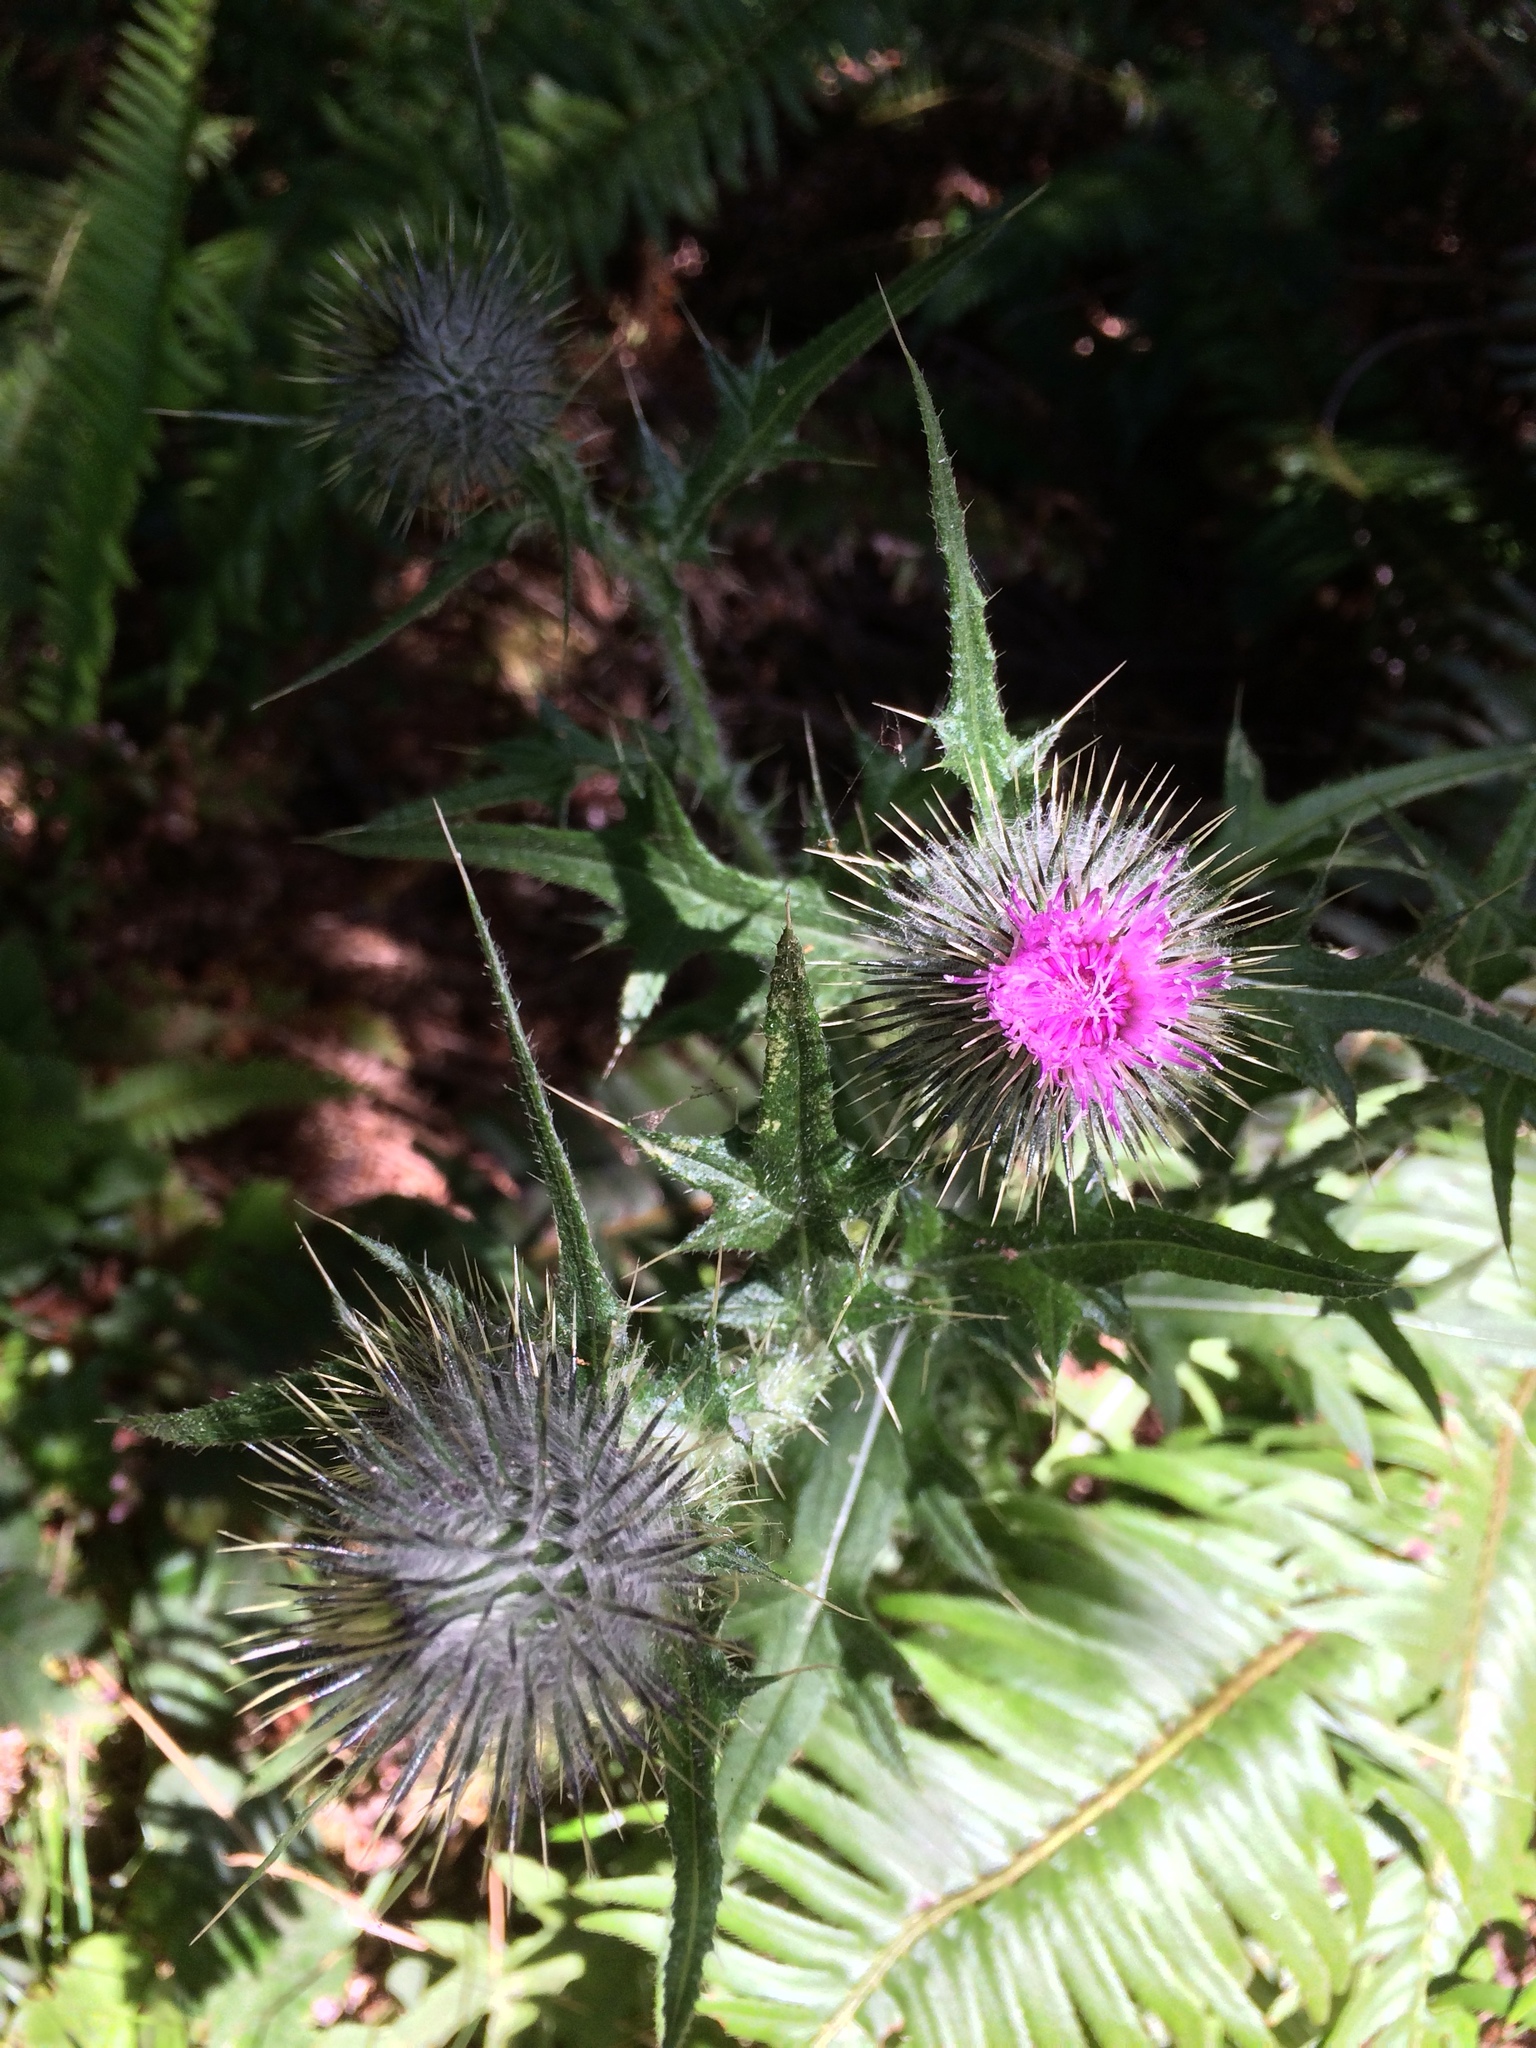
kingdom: Plantae
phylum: Tracheophyta
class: Magnoliopsida
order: Asterales
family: Asteraceae
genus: Cirsium
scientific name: Cirsium vulgare
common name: Bull thistle
